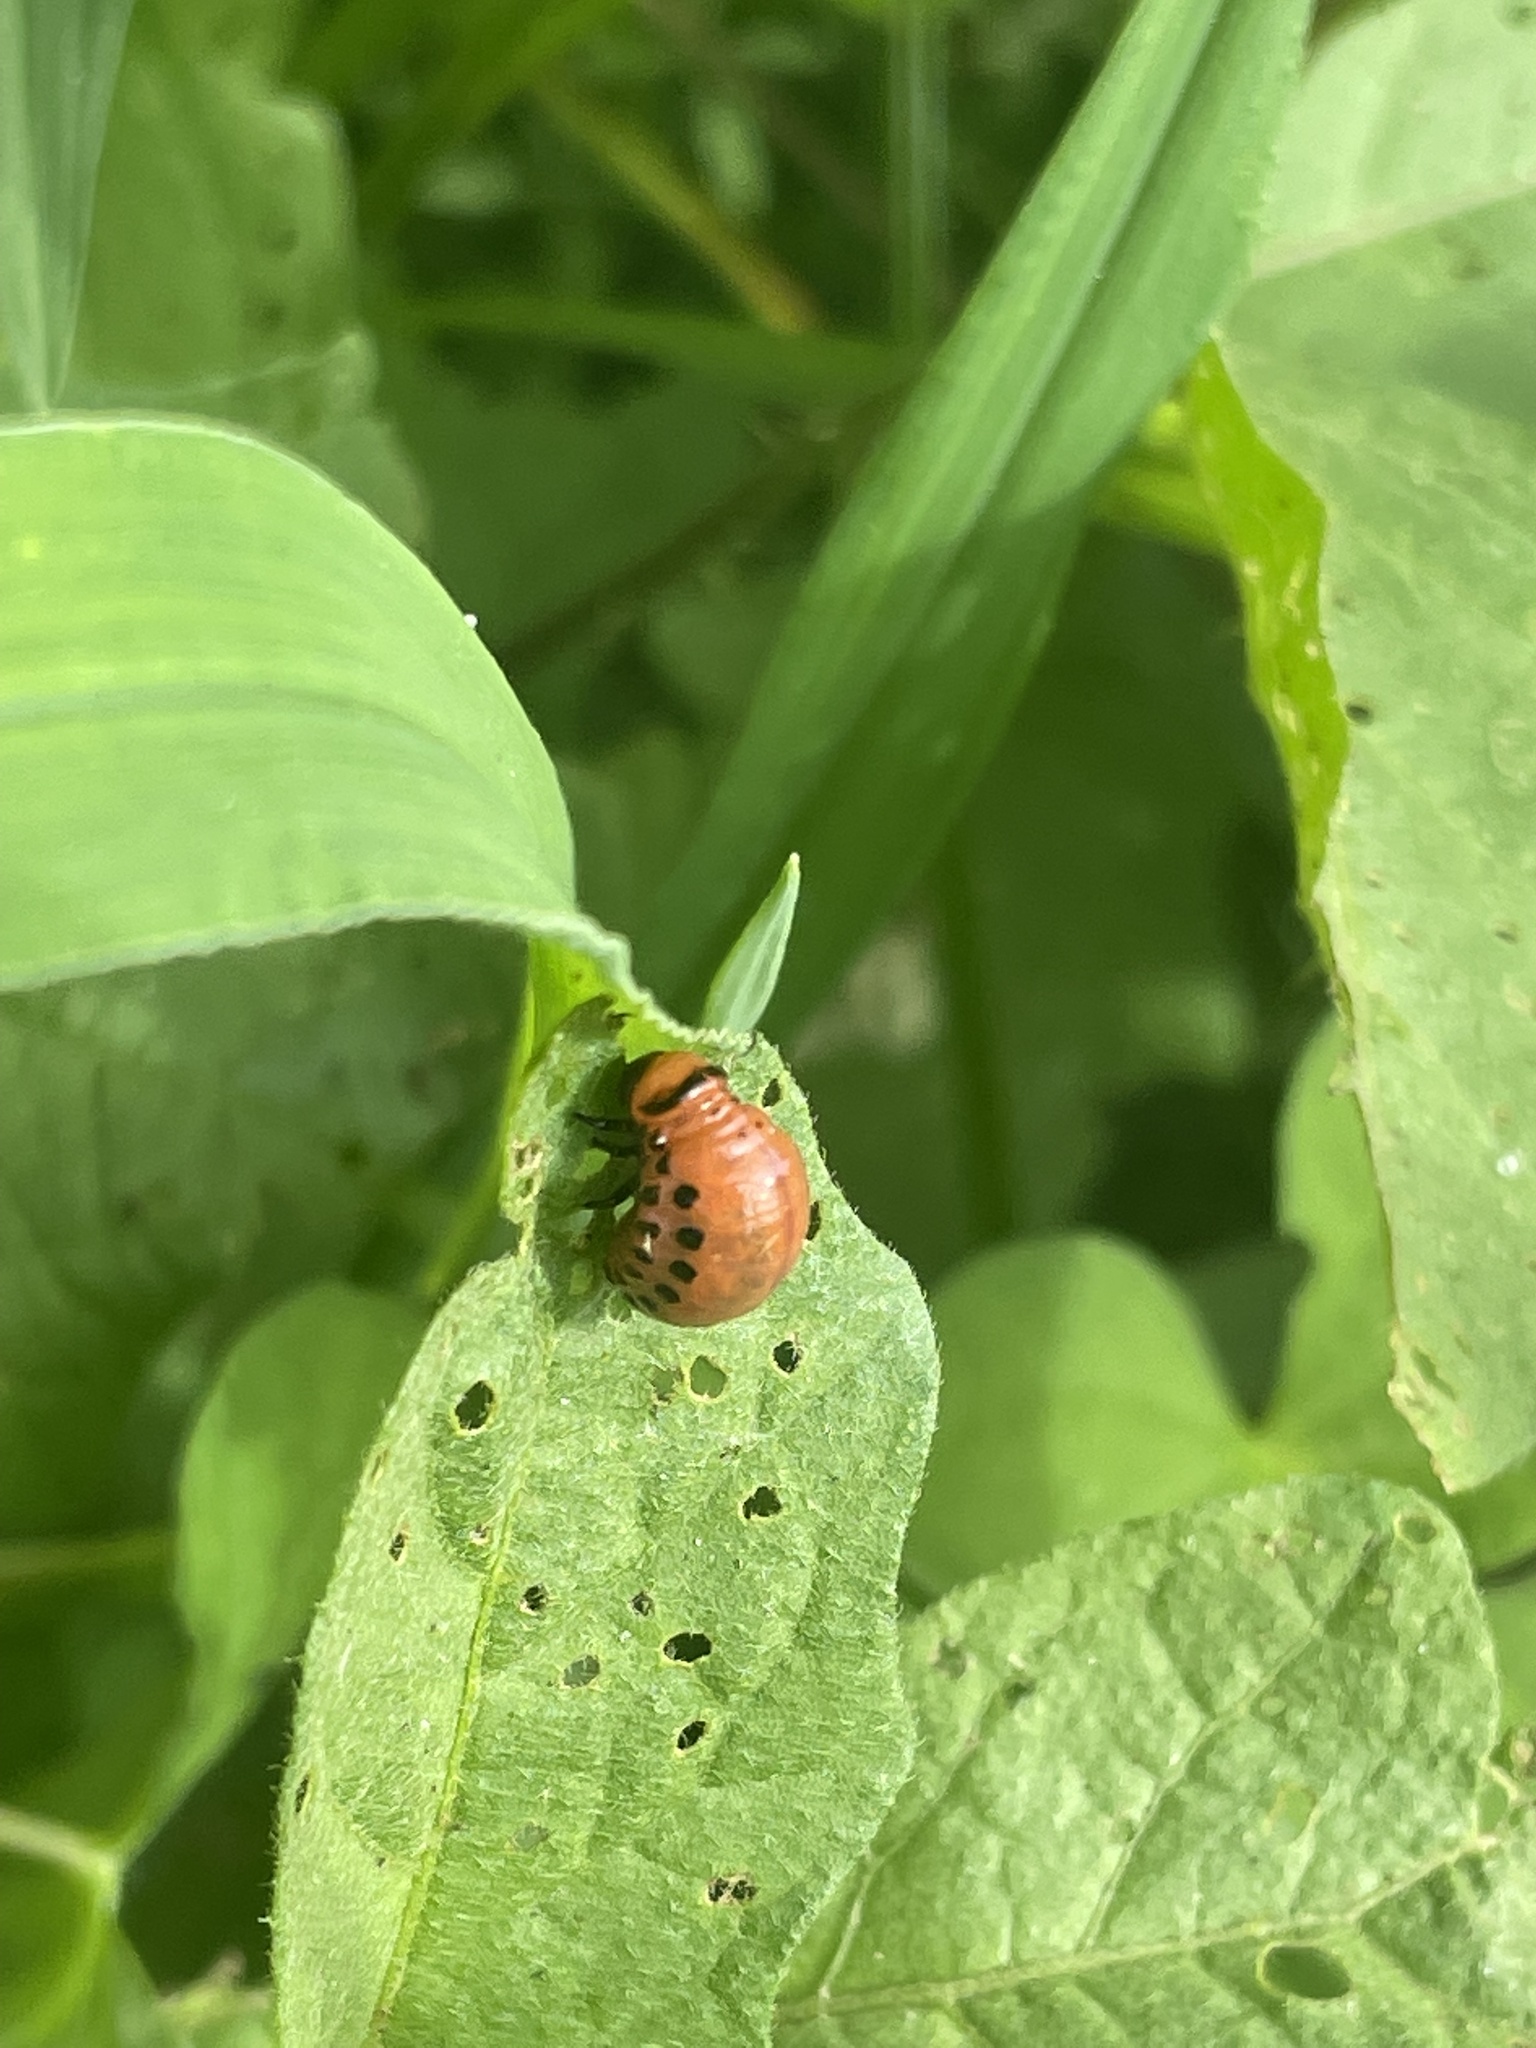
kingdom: Animalia
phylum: Arthropoda
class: Insecta
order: Coleoptera
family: Chrysomelidae
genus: Leptinotarsa
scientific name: Leptinotarsa decemlineata
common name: Colorado potato beetle
